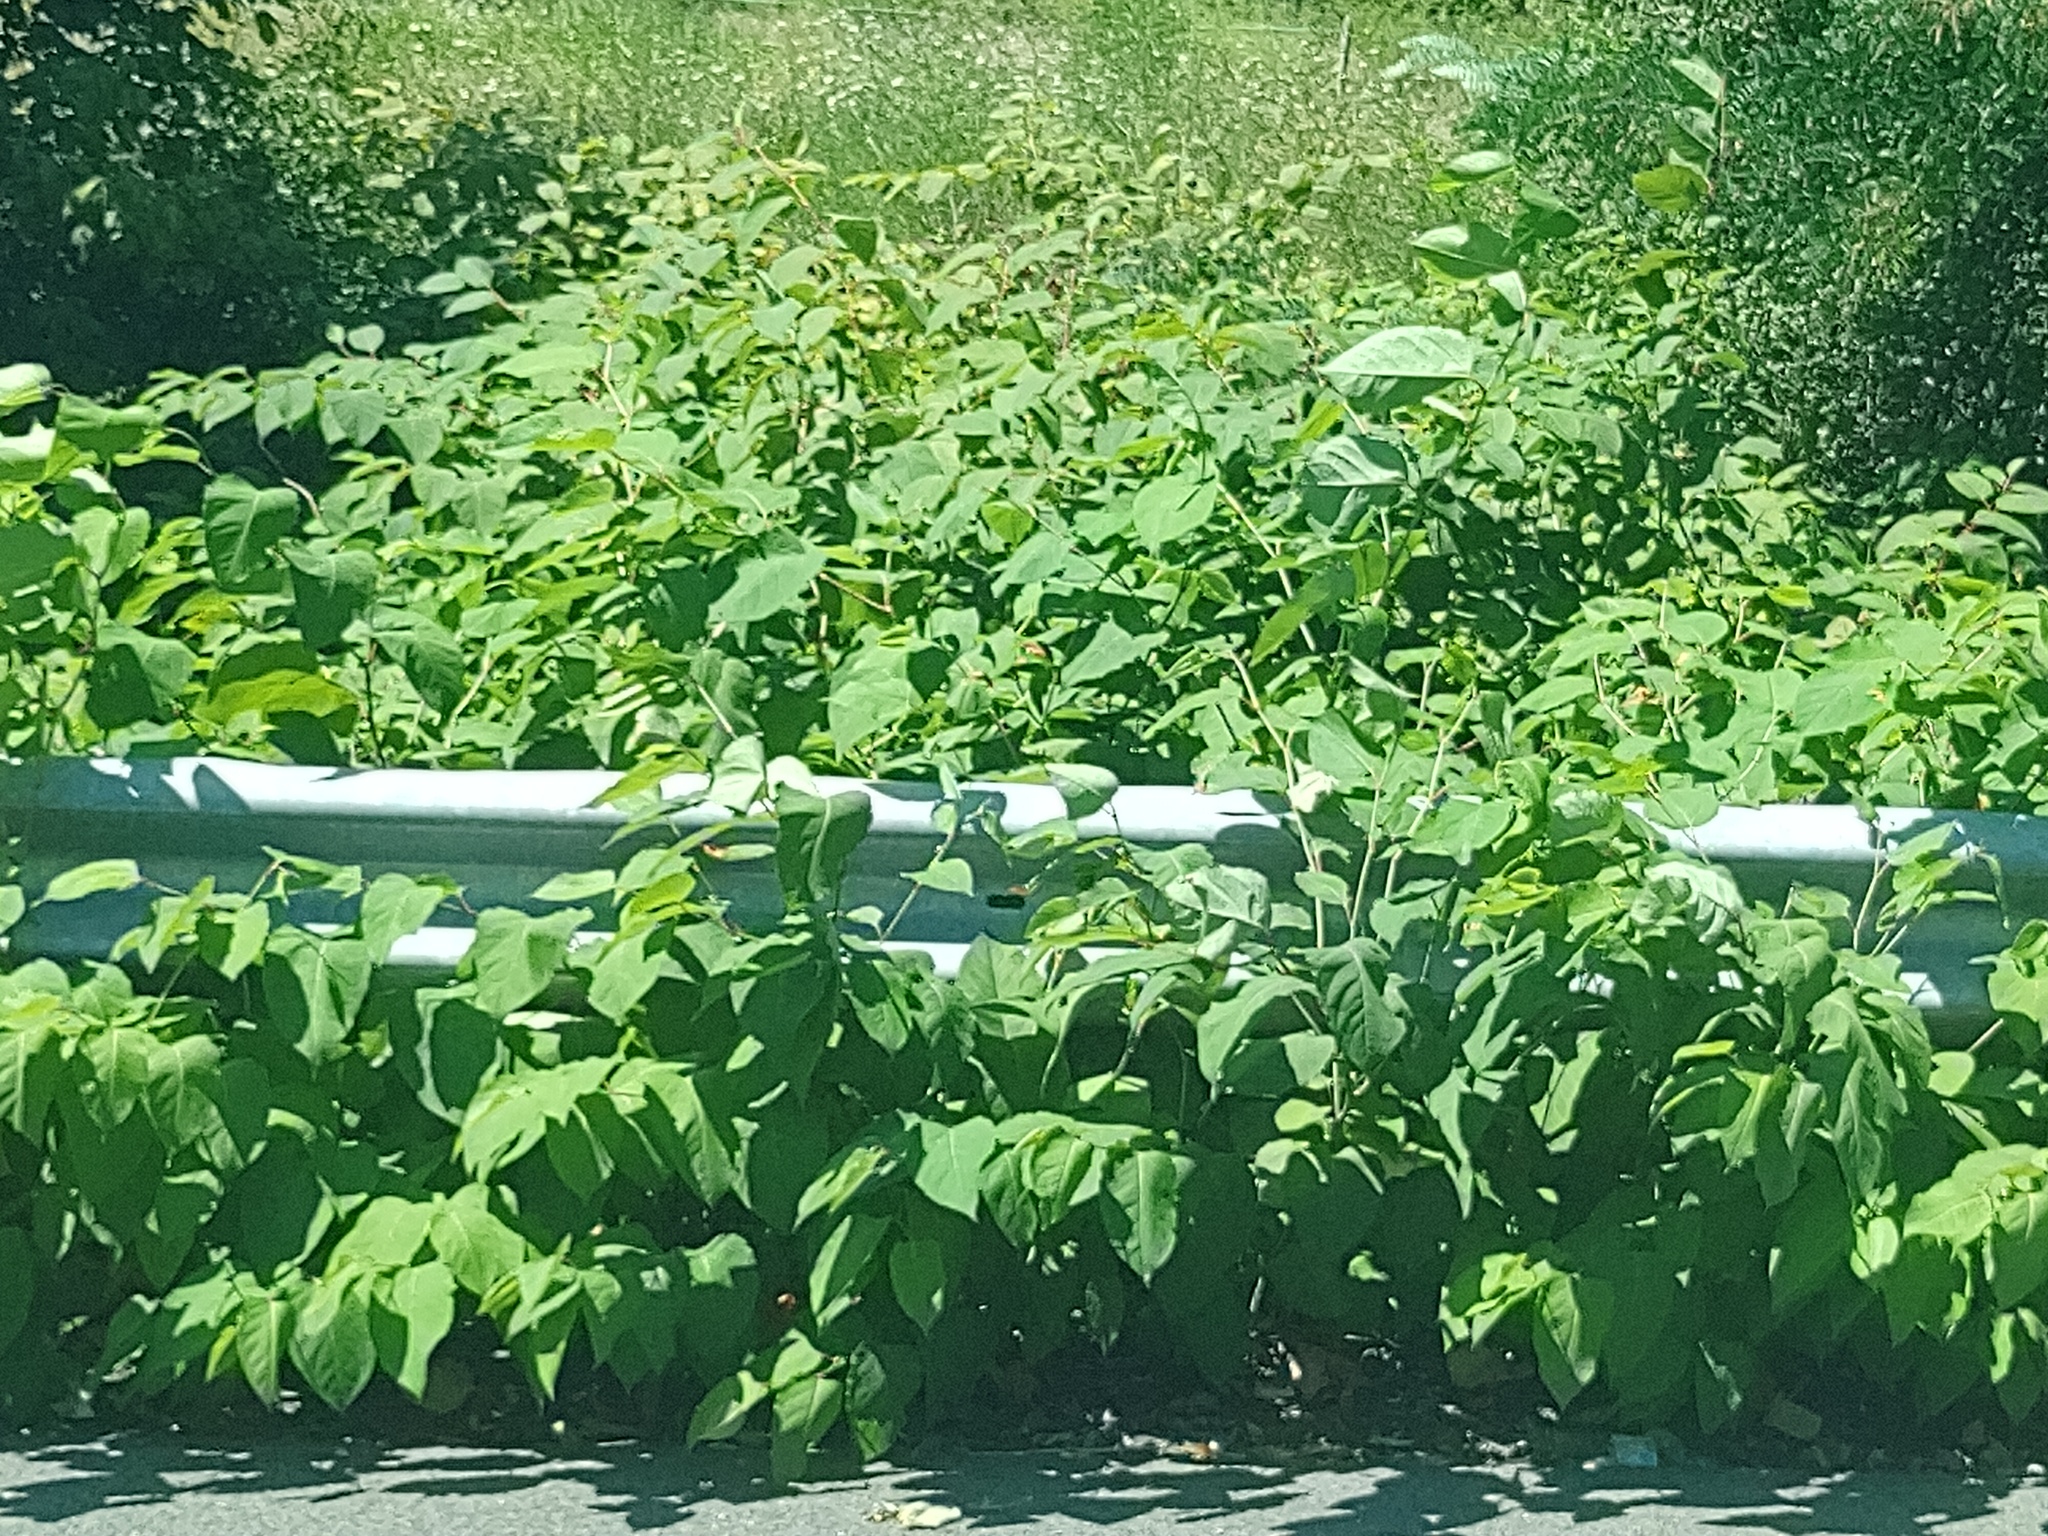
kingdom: Plantae
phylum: Tracheophyta
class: Magnoliopsida
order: Caryophyllales
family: Polygonaceae
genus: Reynoutria
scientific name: Reynoutria bohemica
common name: Bohemian knotweed
